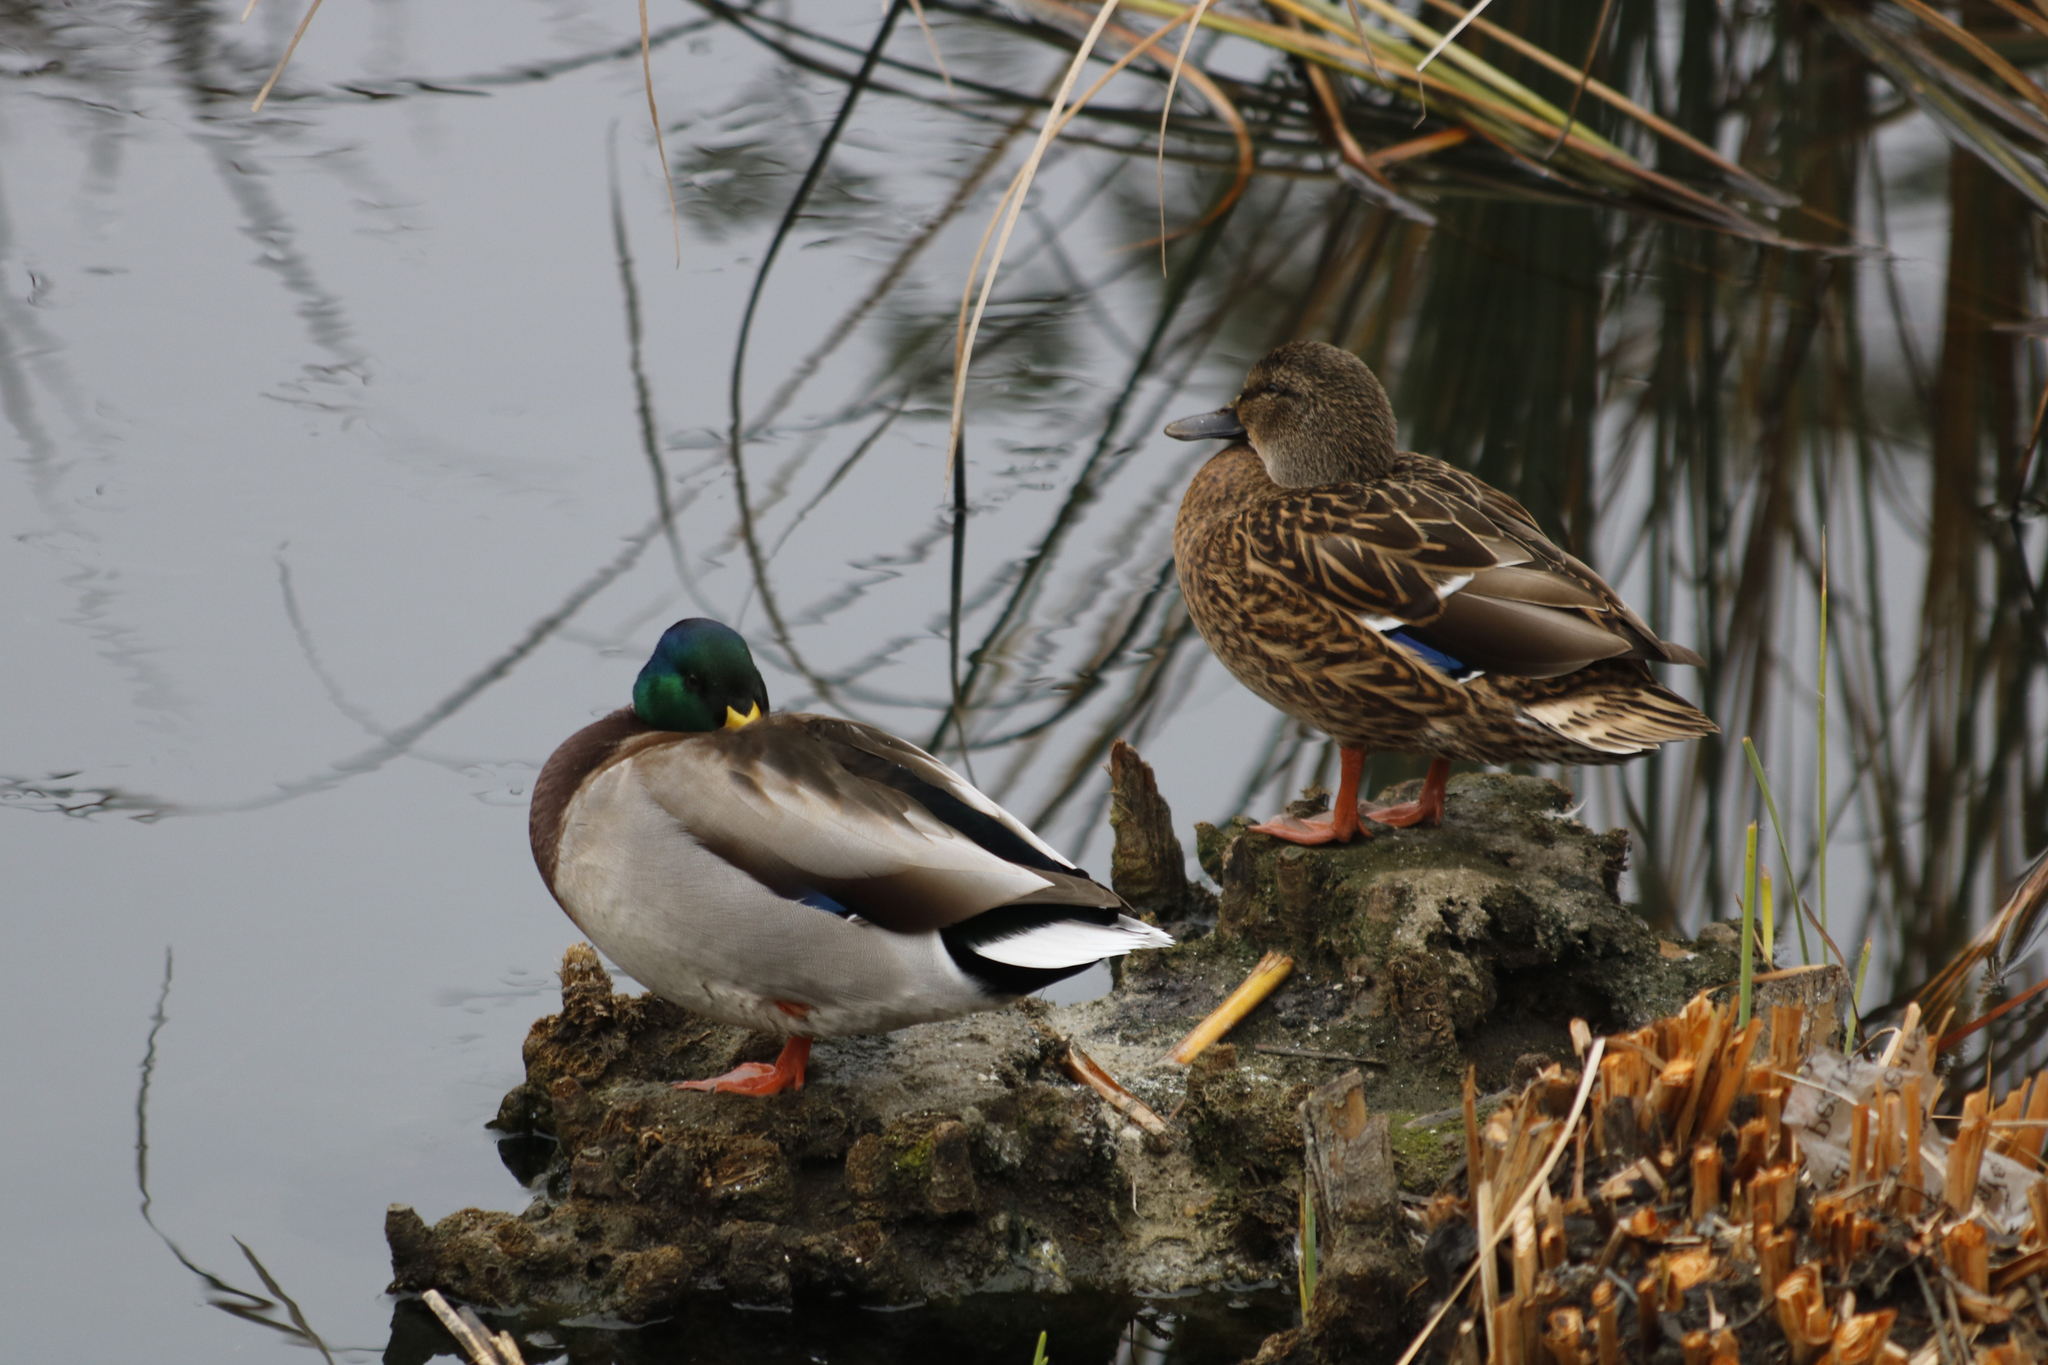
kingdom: Animalia
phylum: Chordata
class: Aves
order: Anseriformes
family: Anatidae
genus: Anas
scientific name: Anas platyrhynchos
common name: Mallard
